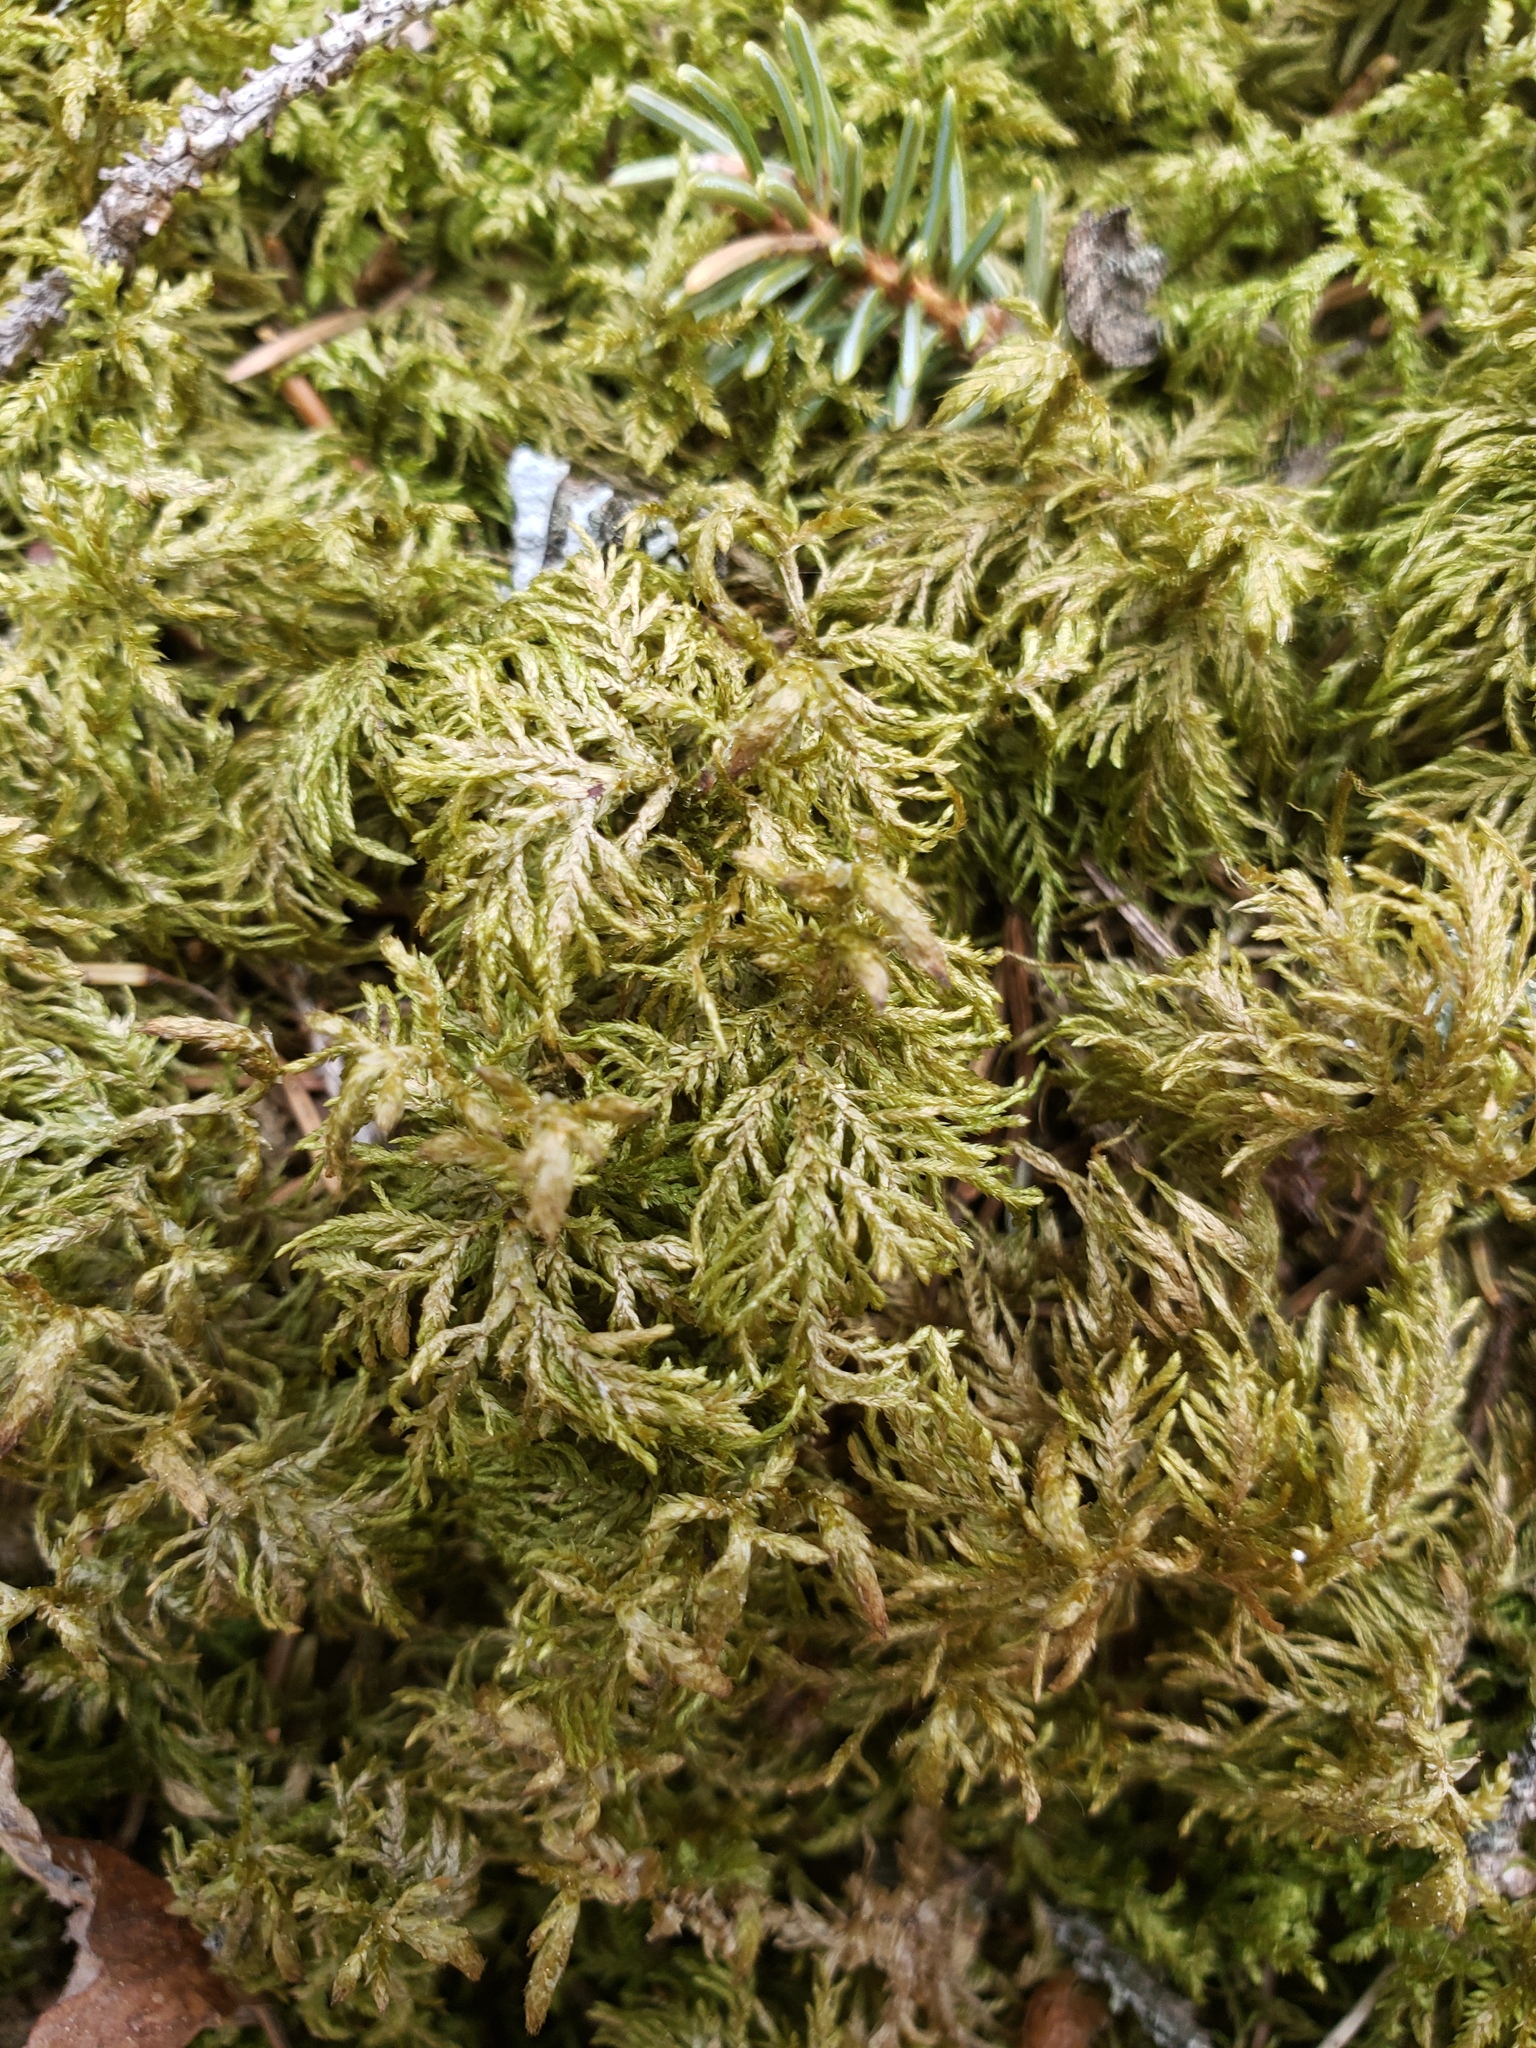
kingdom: Plantae
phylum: Bryophyta
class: Bryopsida
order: Hypnales
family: Hylocomiaceae
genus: Hylocomium
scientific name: Hylocomium splendens
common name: Stairstep moss
